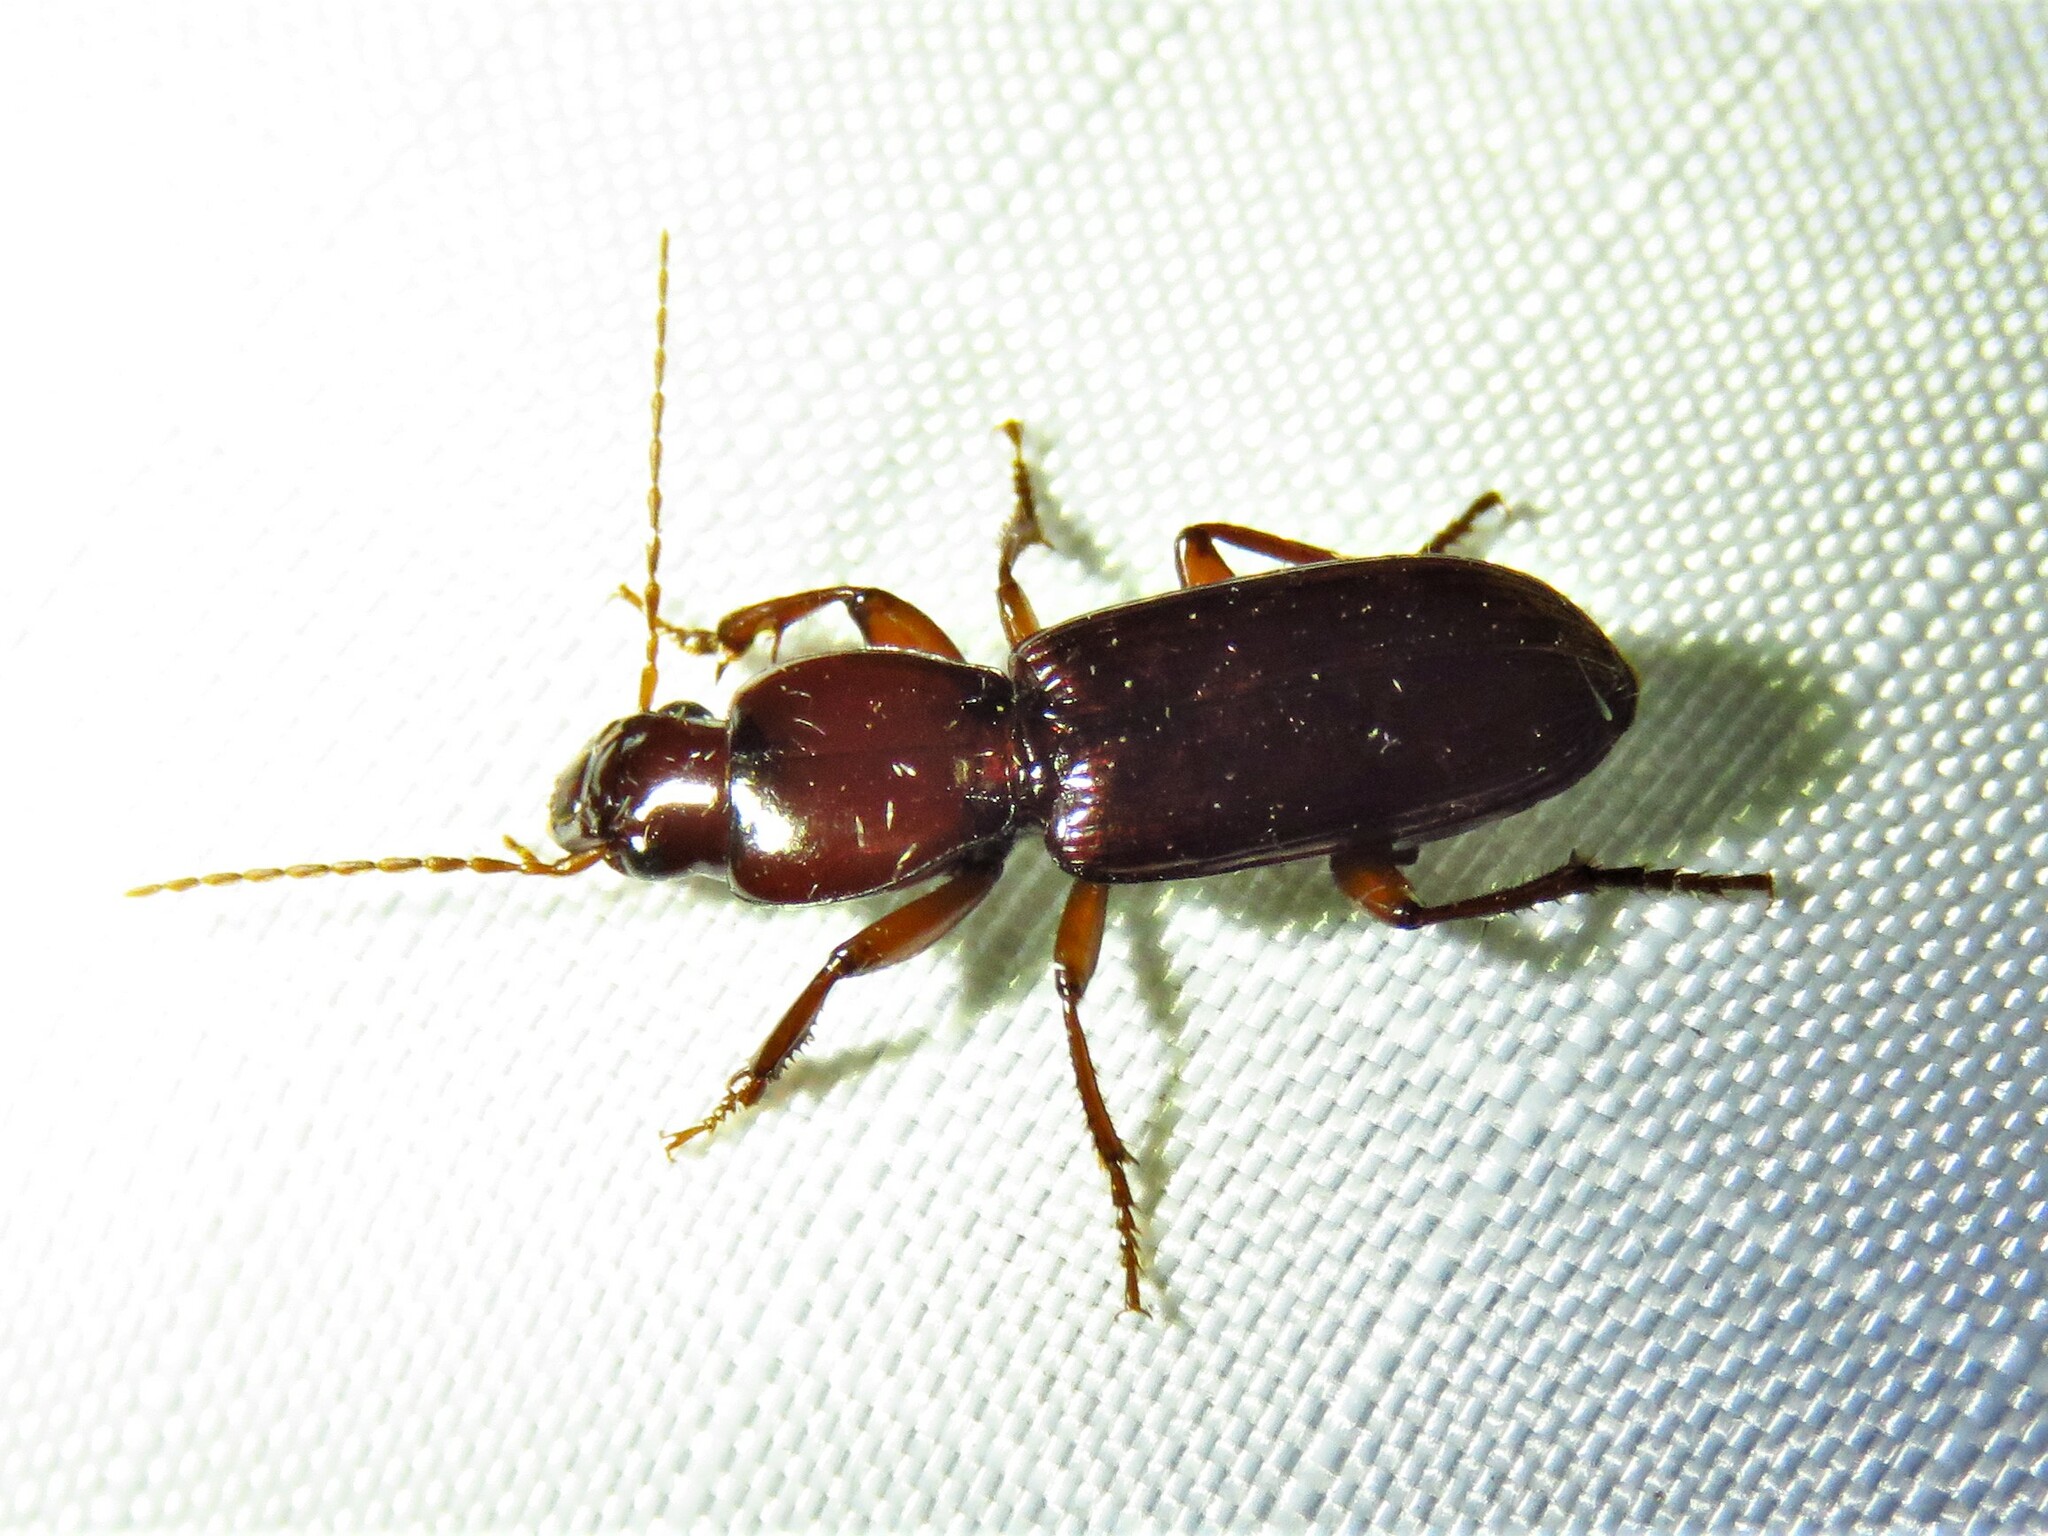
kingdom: Animalia
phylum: Arthropoda
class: Insecta
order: Coleoptera
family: Carabidae
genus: Stenomorphus
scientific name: Stenomorphus californicus
